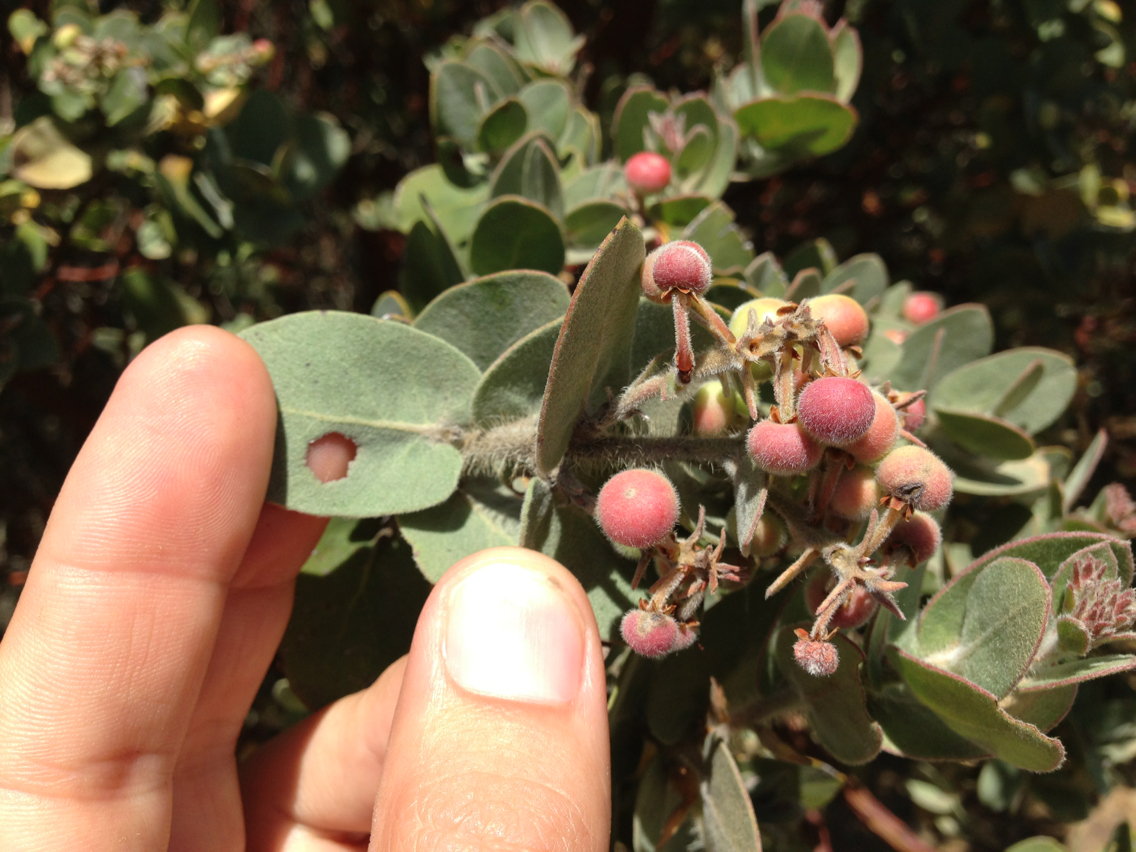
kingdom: Plantae
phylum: Tracheophyta
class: Magnoliopsida
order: Ericales
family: Ericaceae
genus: Arctostaphylos
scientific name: Arctostaphylos auriculata
